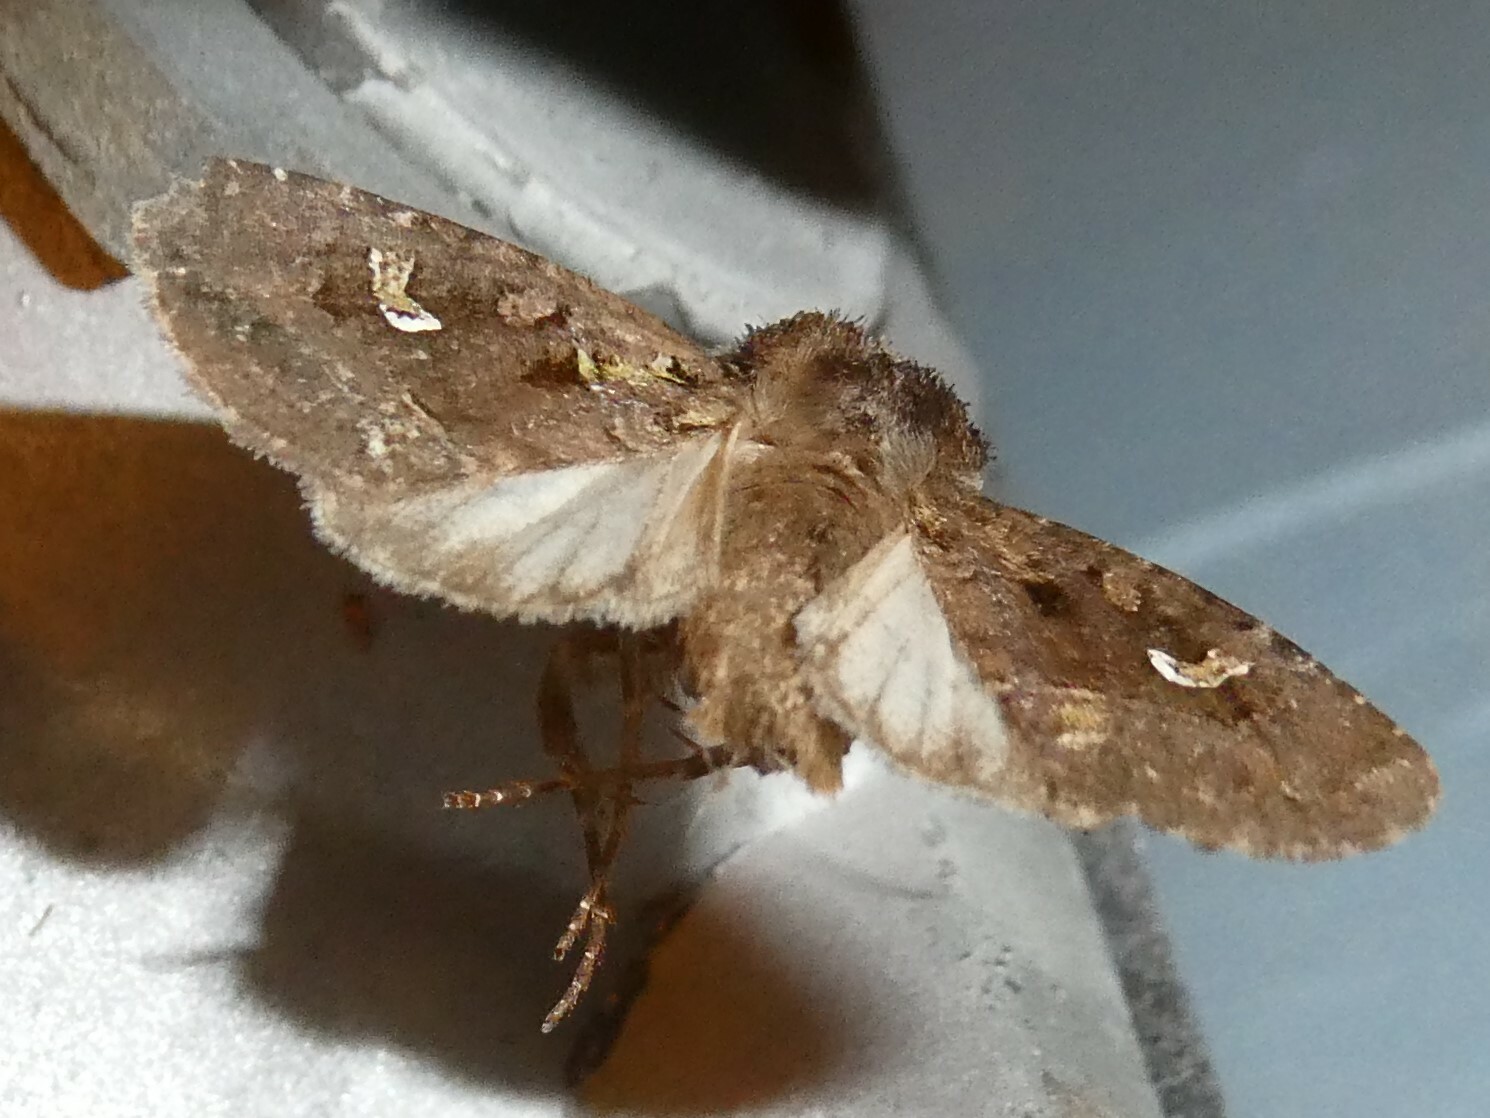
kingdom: Animalia
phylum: Arthropoda
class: Insecta
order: Lepidoptera
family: Noctuidae
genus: Lacinipolia
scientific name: Lacinipolia renigera
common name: Kidney-spotted minor
